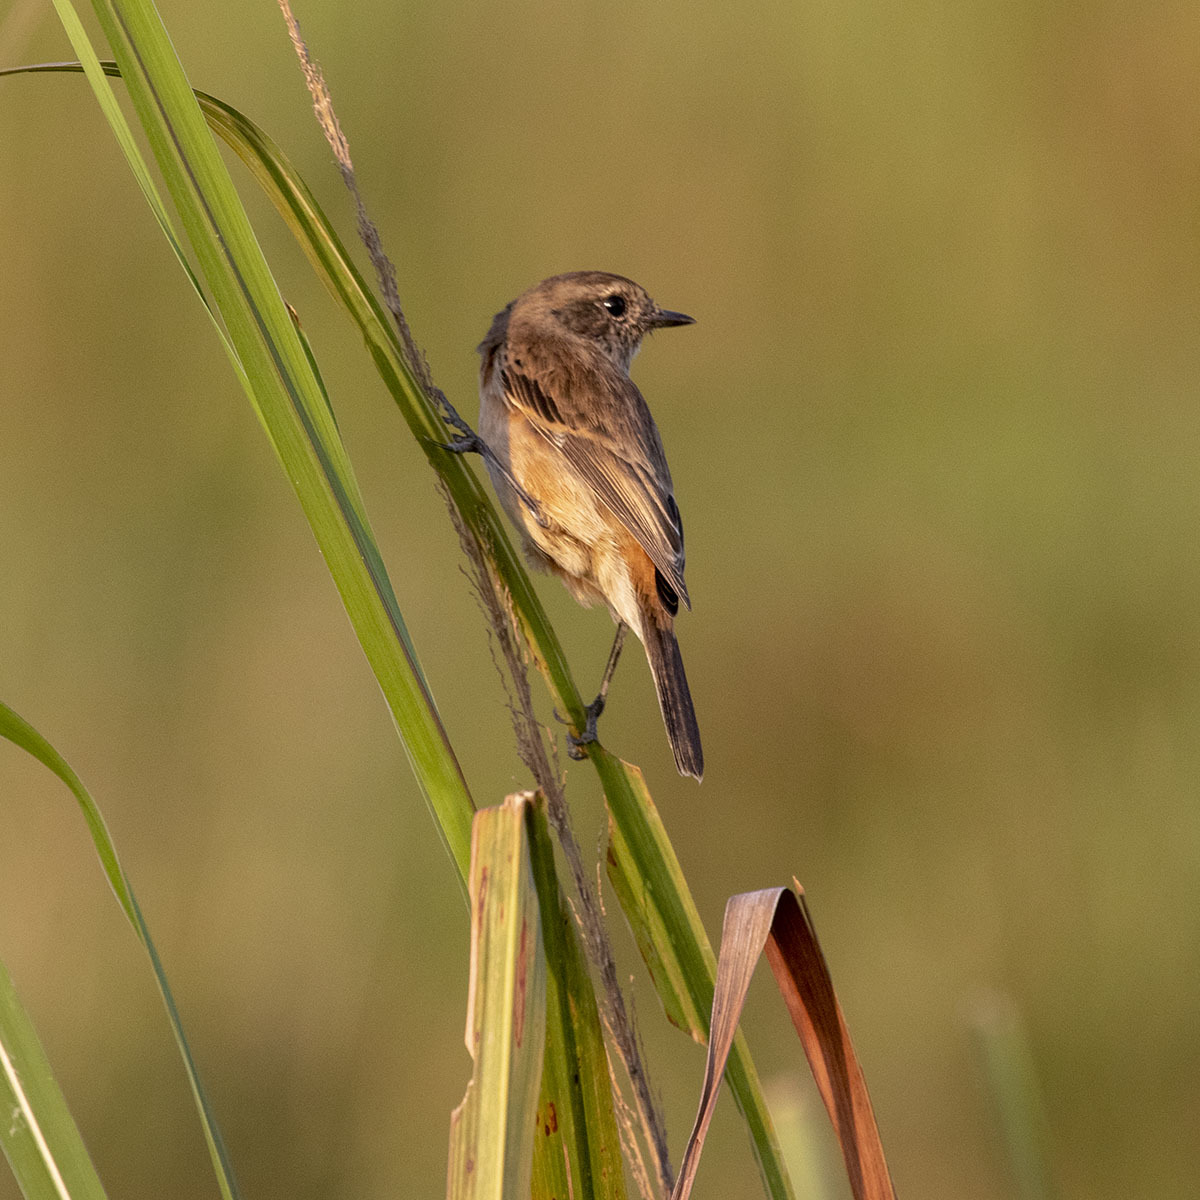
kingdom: Animalia
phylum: Chordata
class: Aves
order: Passeriformes
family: Muscicapidae
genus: Saxicola
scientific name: Saxicola maurus
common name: Siberian stonechat
